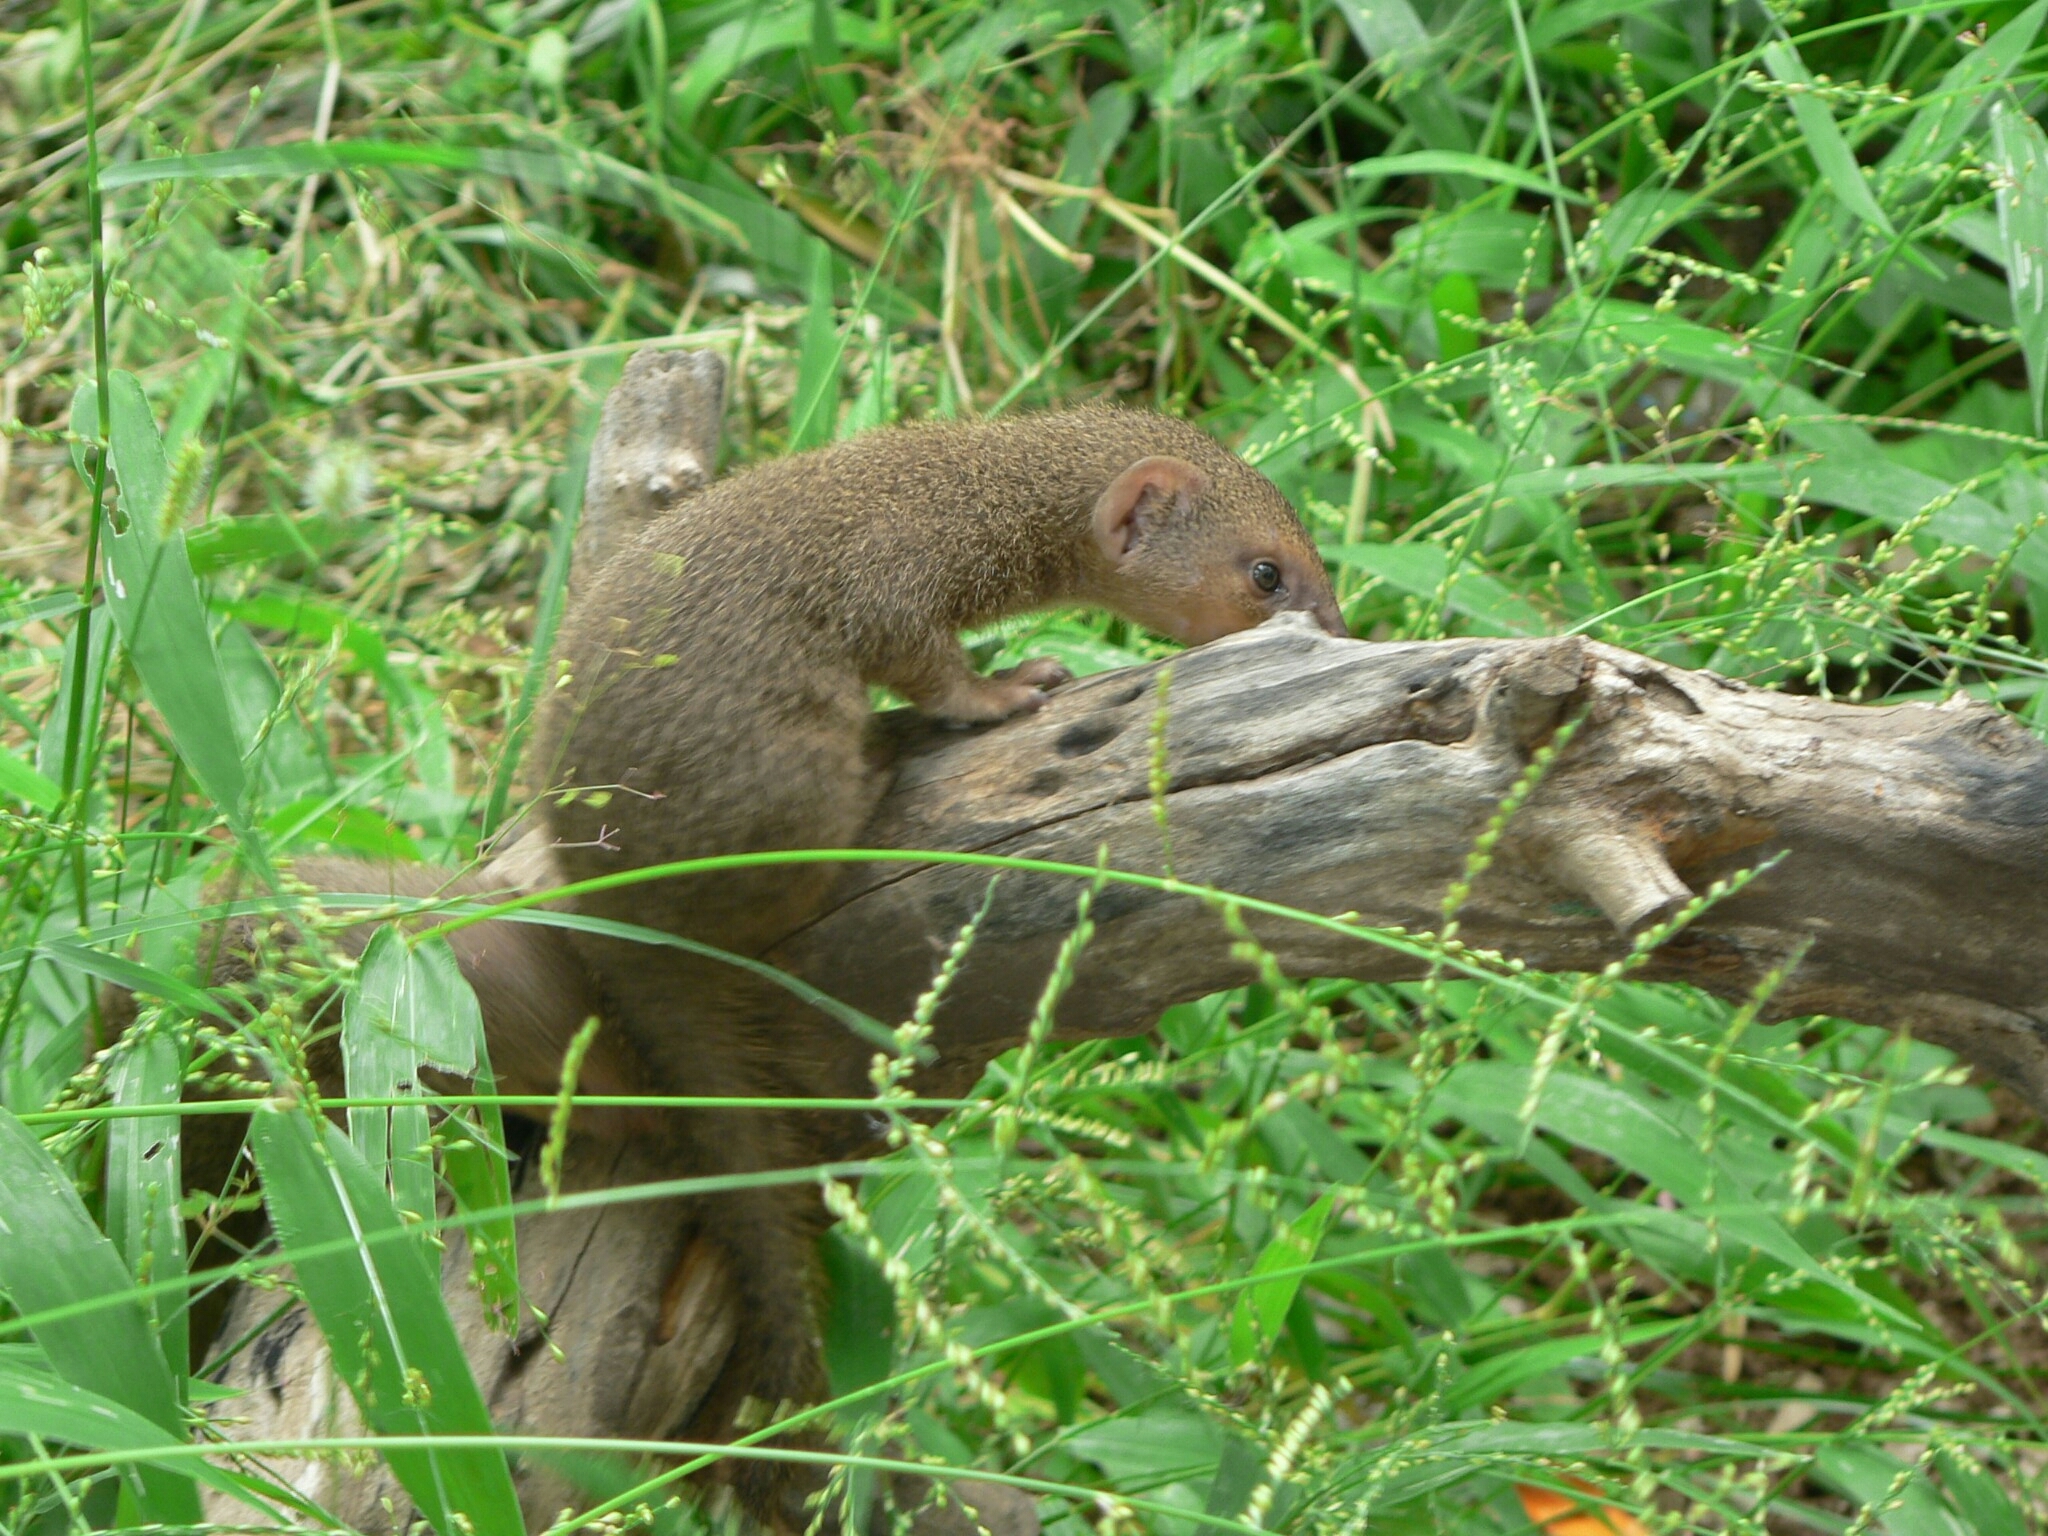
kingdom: Animalia
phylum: Chordata
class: Mammalia
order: Carnivora
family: Herpestidae
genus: Herpestes
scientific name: Herpestes edwardsi
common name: Indian gray mongoose
